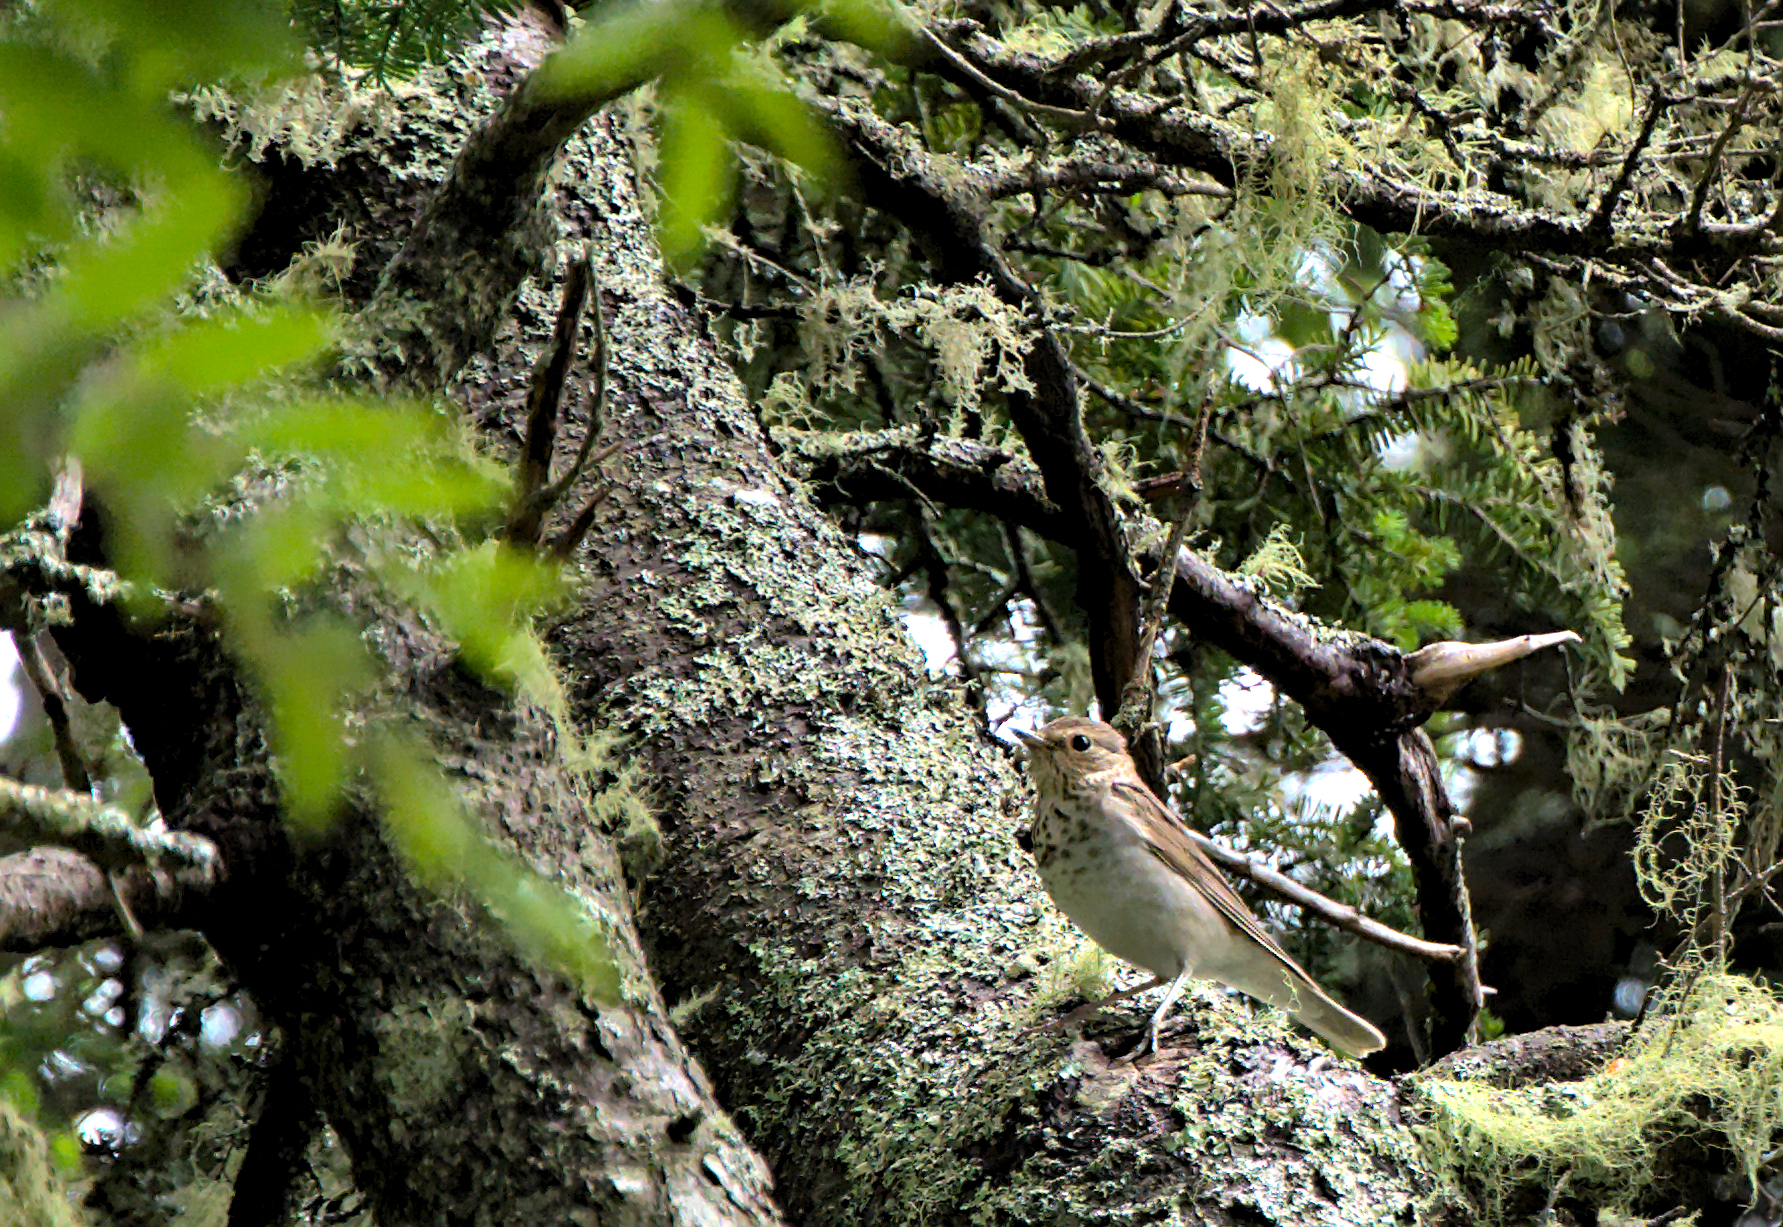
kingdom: Animalia
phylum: Chordata
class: Aves
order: Passeriformes
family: Turdidae
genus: Catharus
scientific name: Catharus ustulatus
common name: Swainson's thrush
